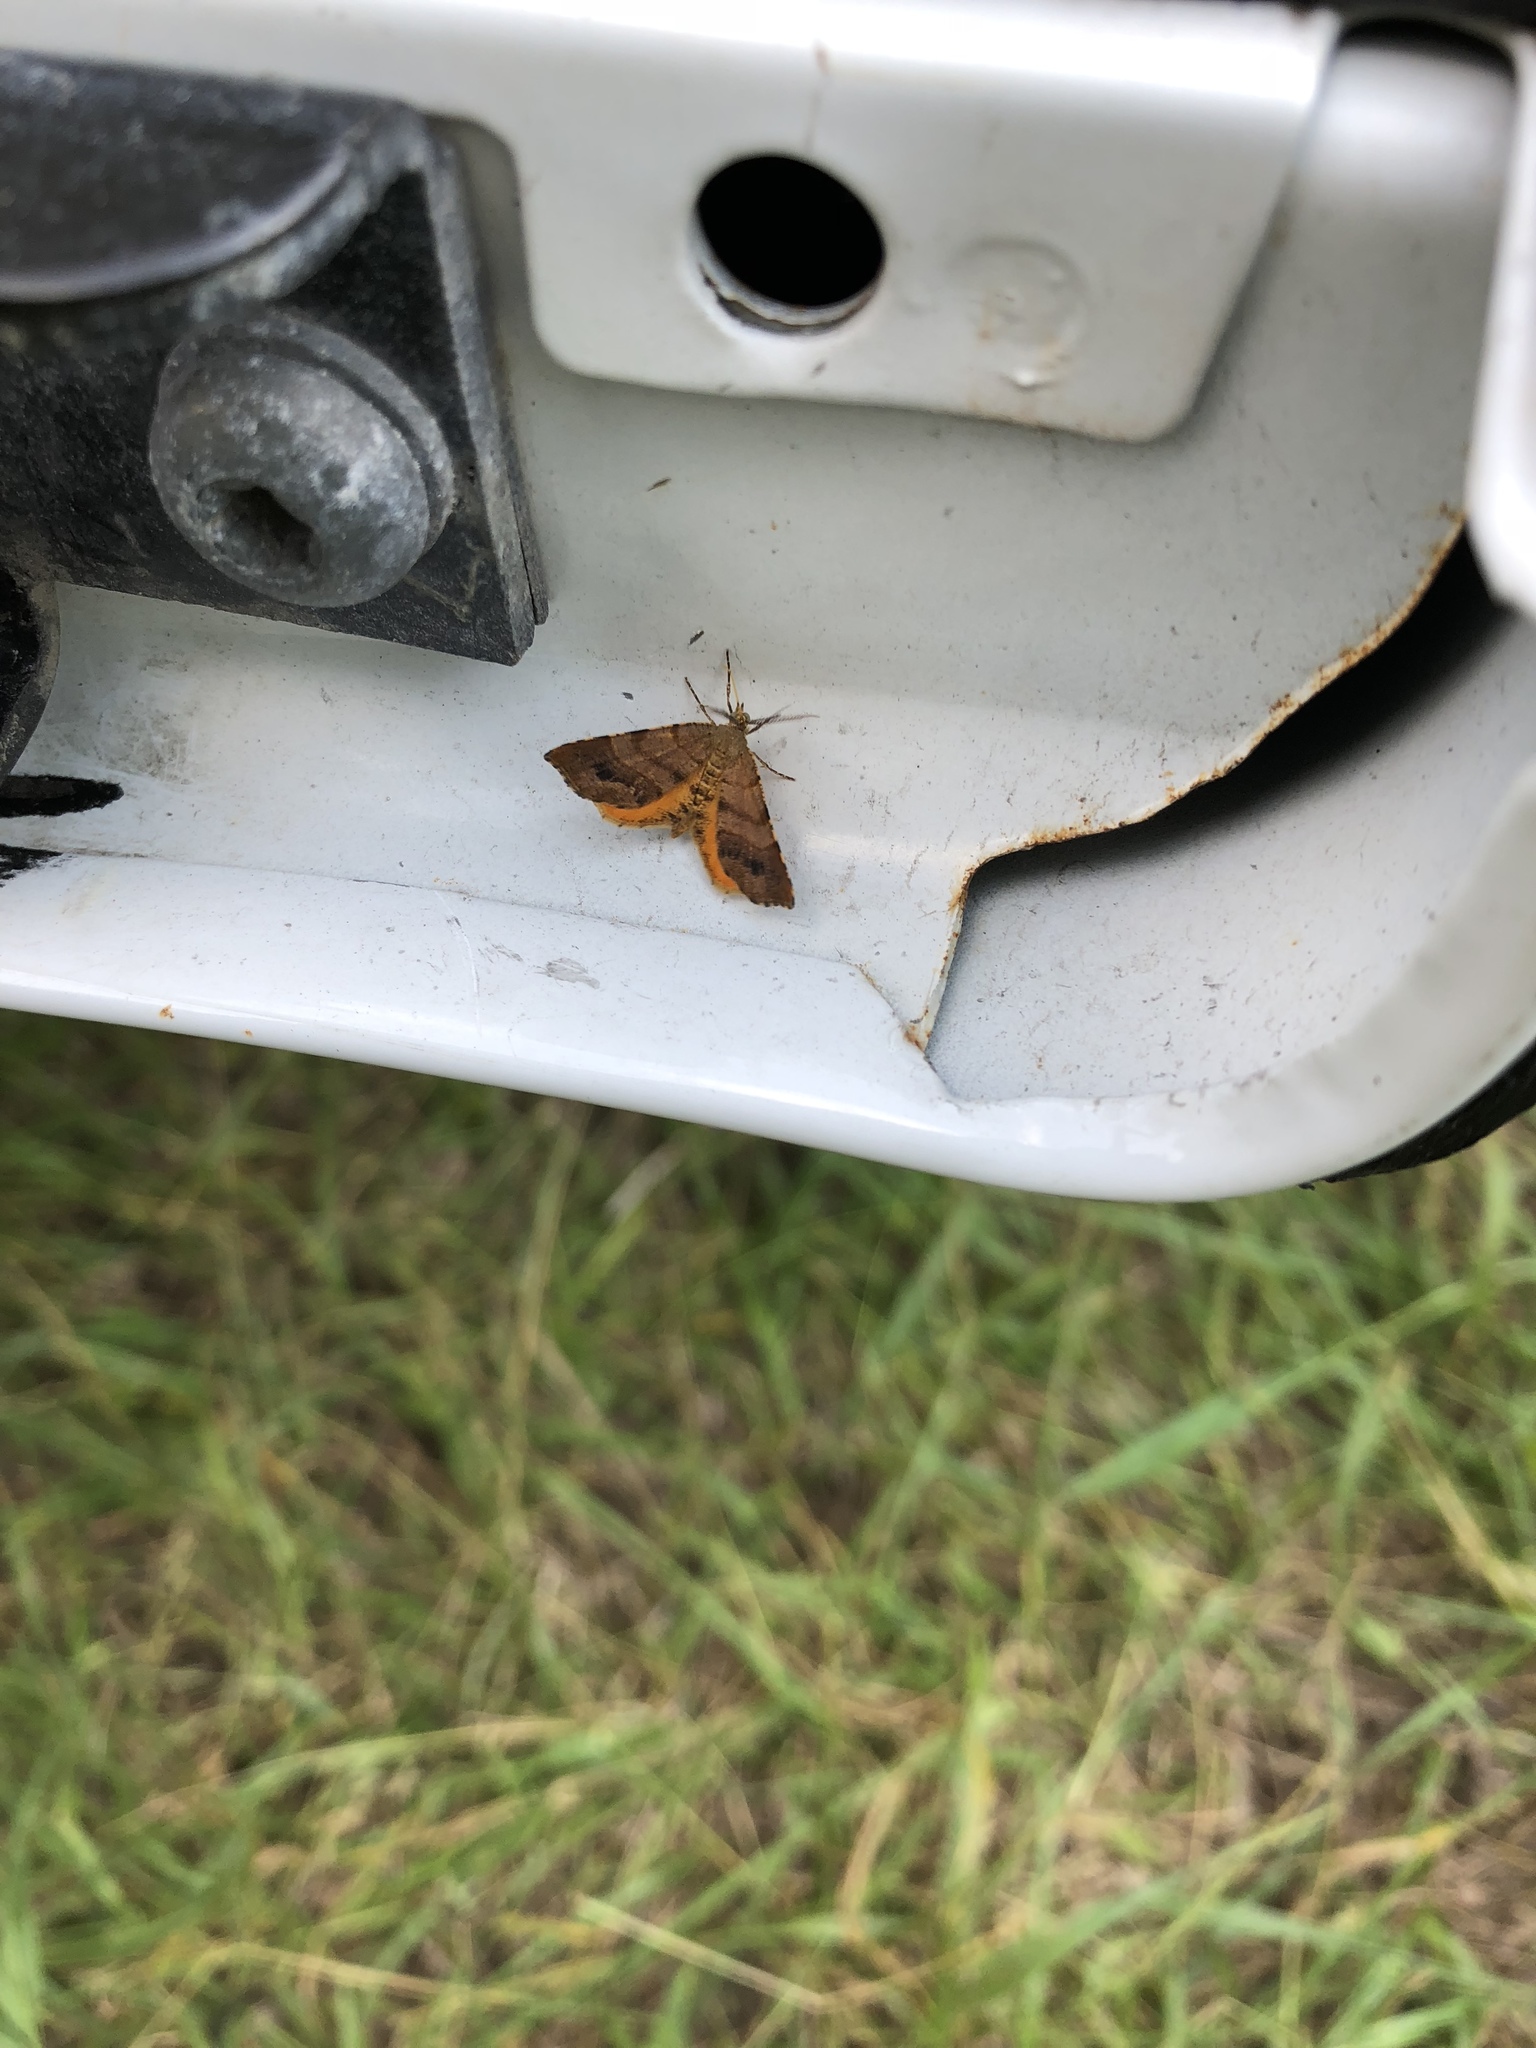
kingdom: Animalia
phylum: Arthropoda
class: Insecta
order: Lepidoptera
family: Geometridae
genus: Mellilla
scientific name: Mellilla xanthometata
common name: Orange wing moth
